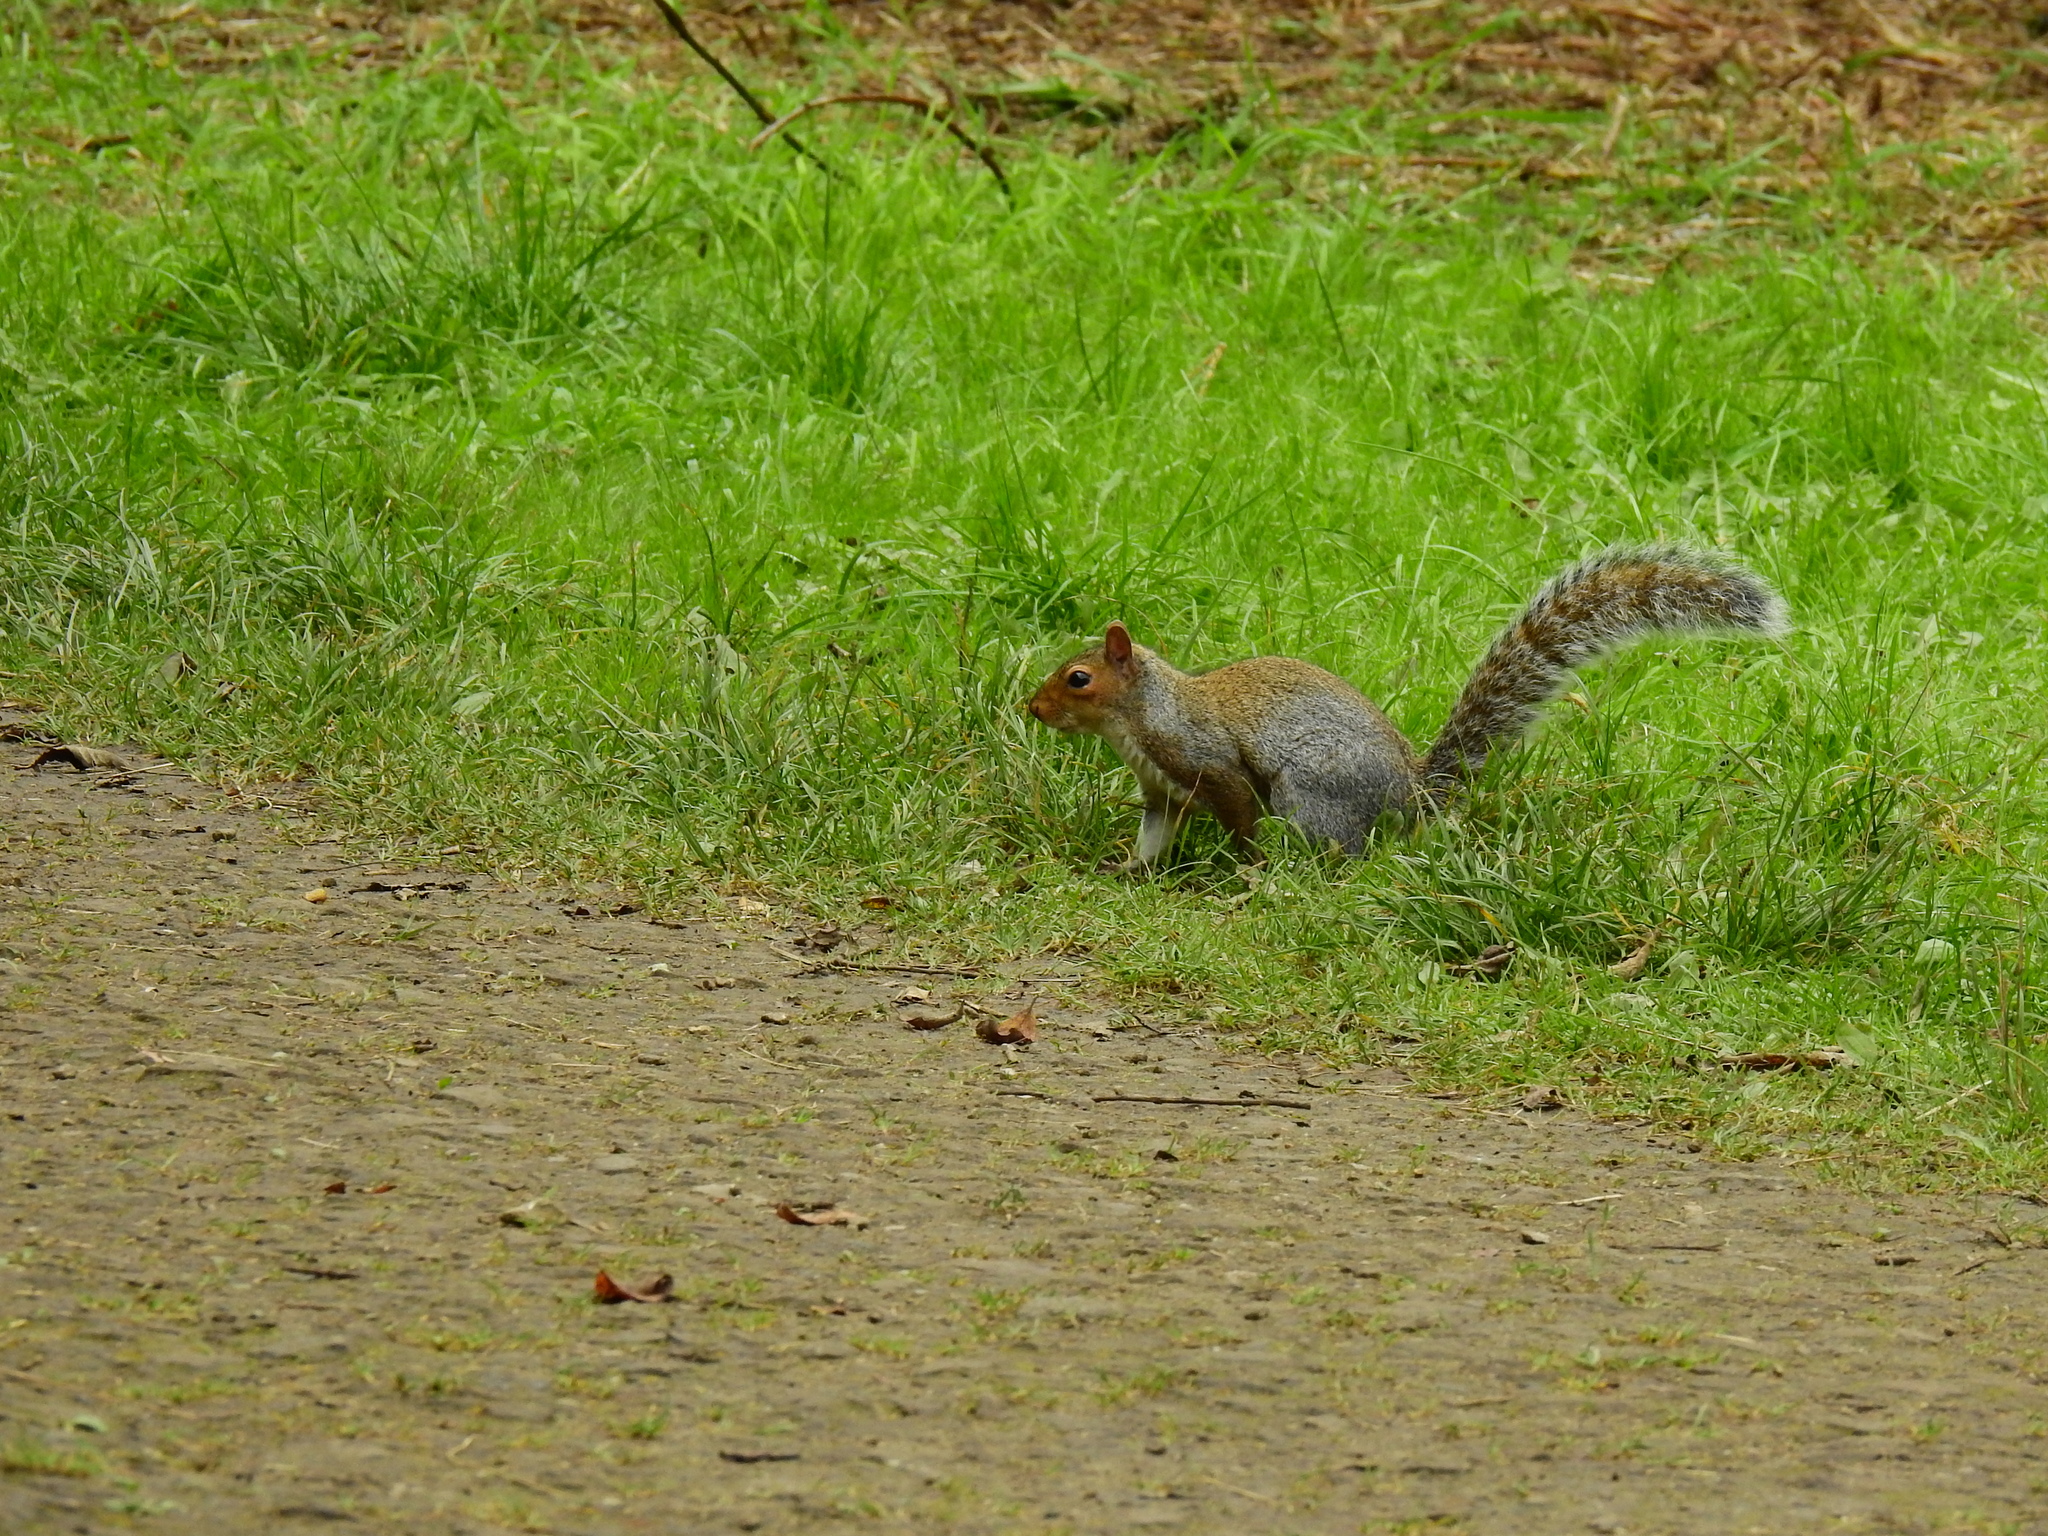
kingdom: Animalia
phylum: Chordata
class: Mammalia
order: Rodentia
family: Sciuridae
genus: Sciurus
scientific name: Sciurus carolinensis
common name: Eastern gray squirrel
